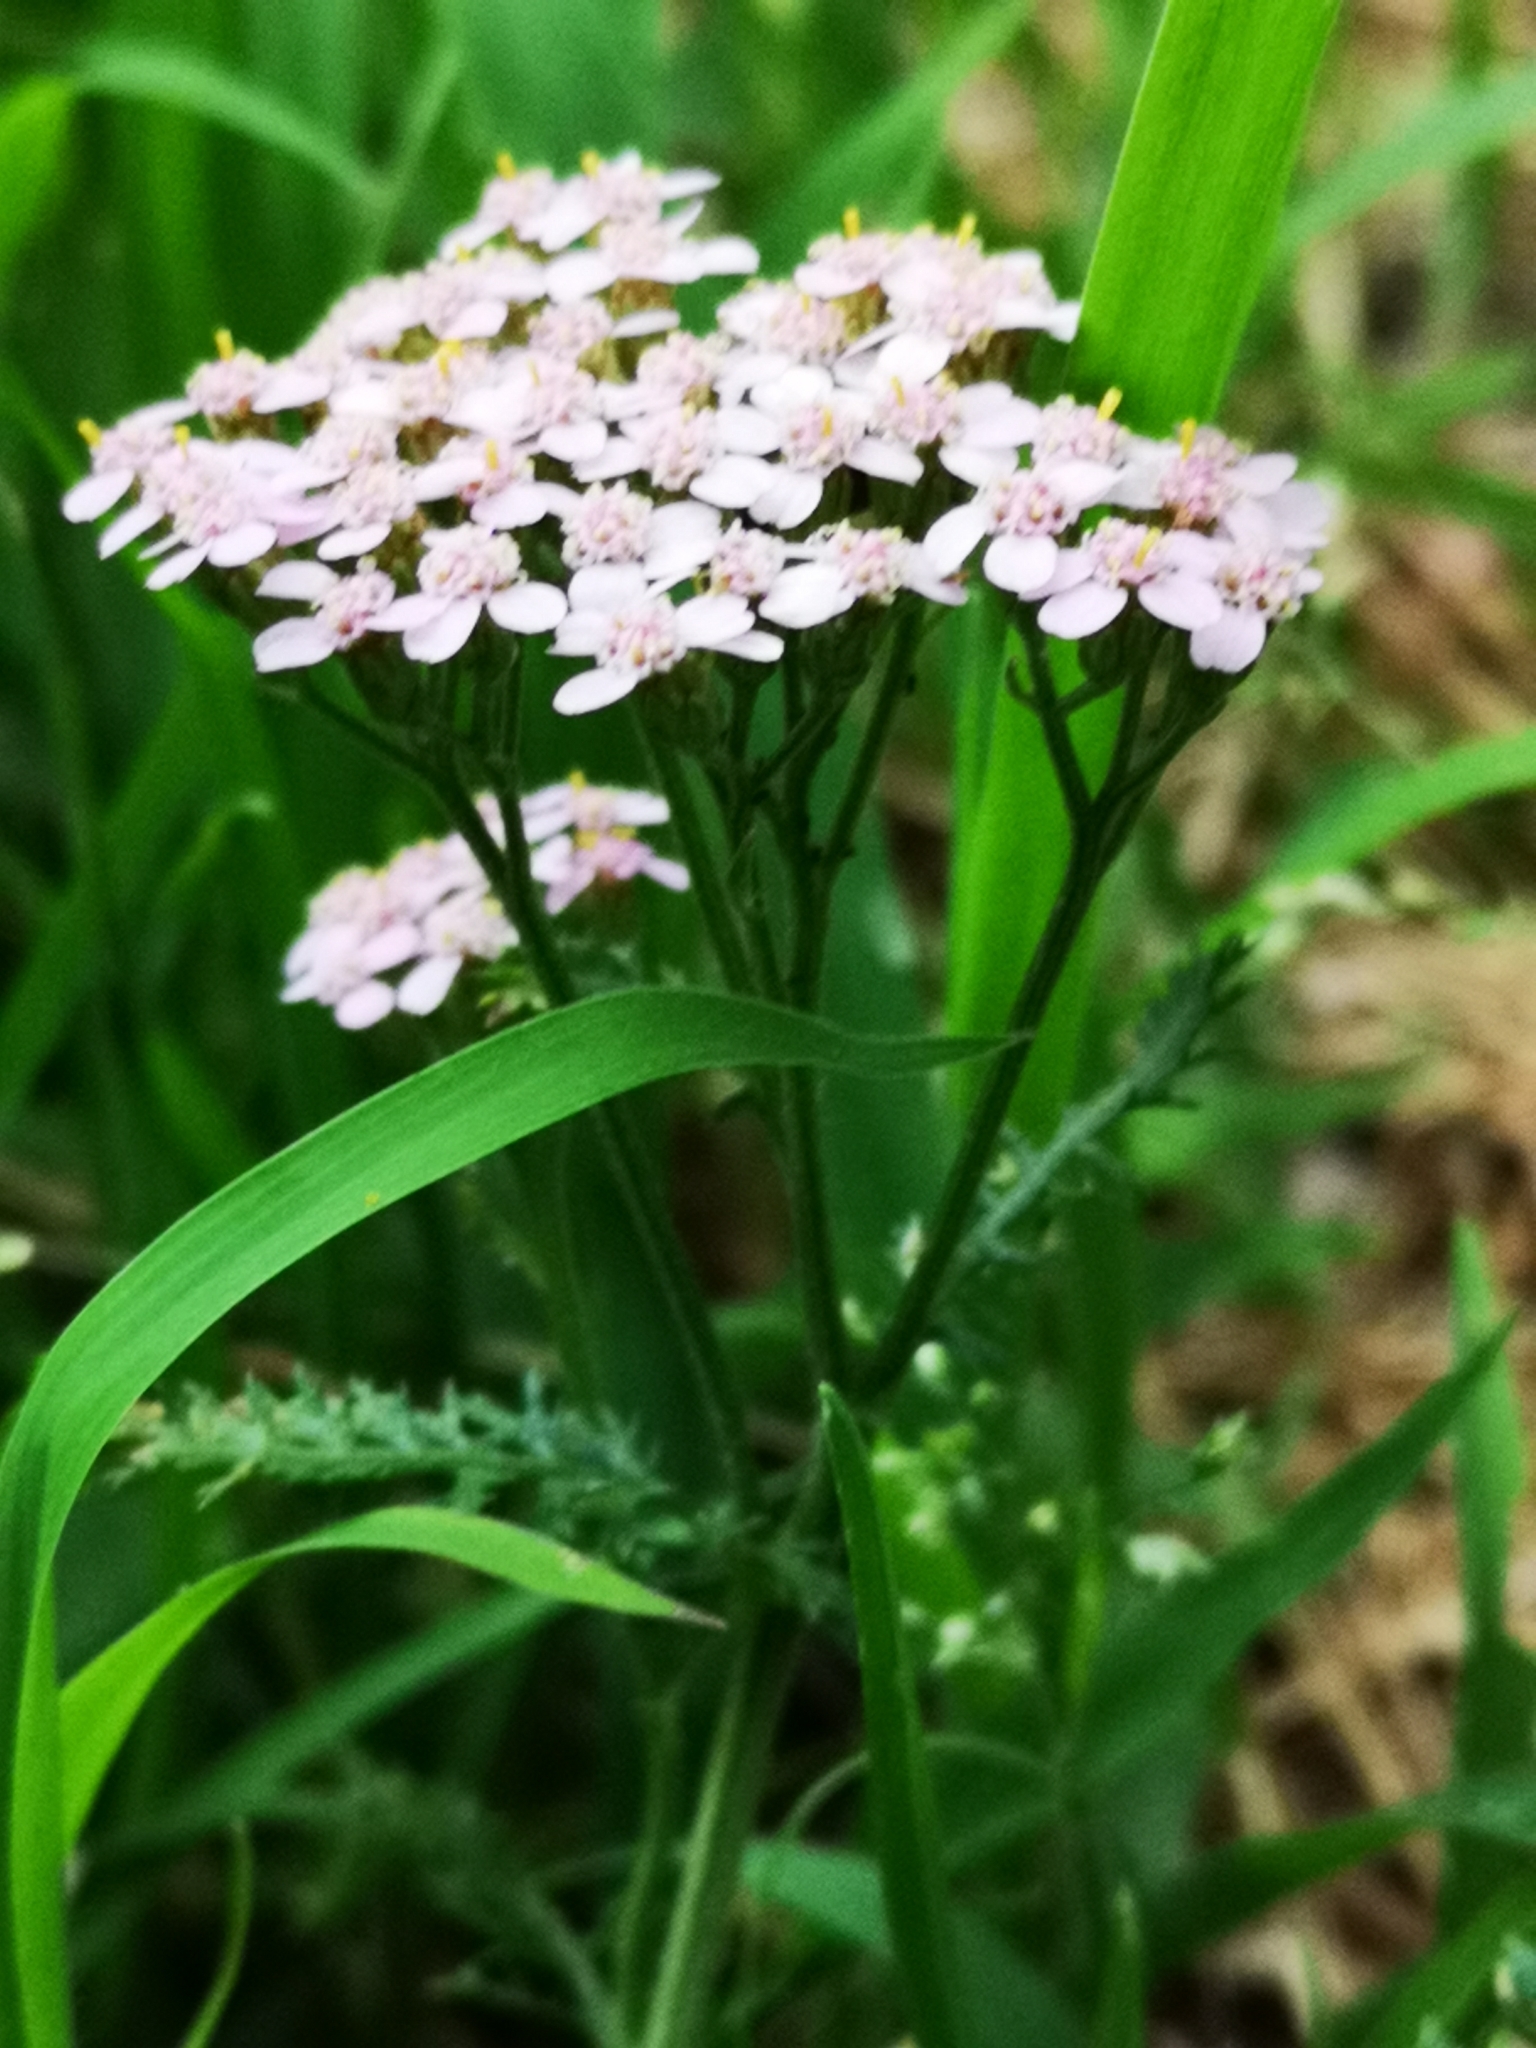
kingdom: Plantae
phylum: Tracheophyta
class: Magnoliopsida
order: Asterales
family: Asteraceae
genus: Achillea
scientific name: Achillea millefolium
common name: Yarrow
